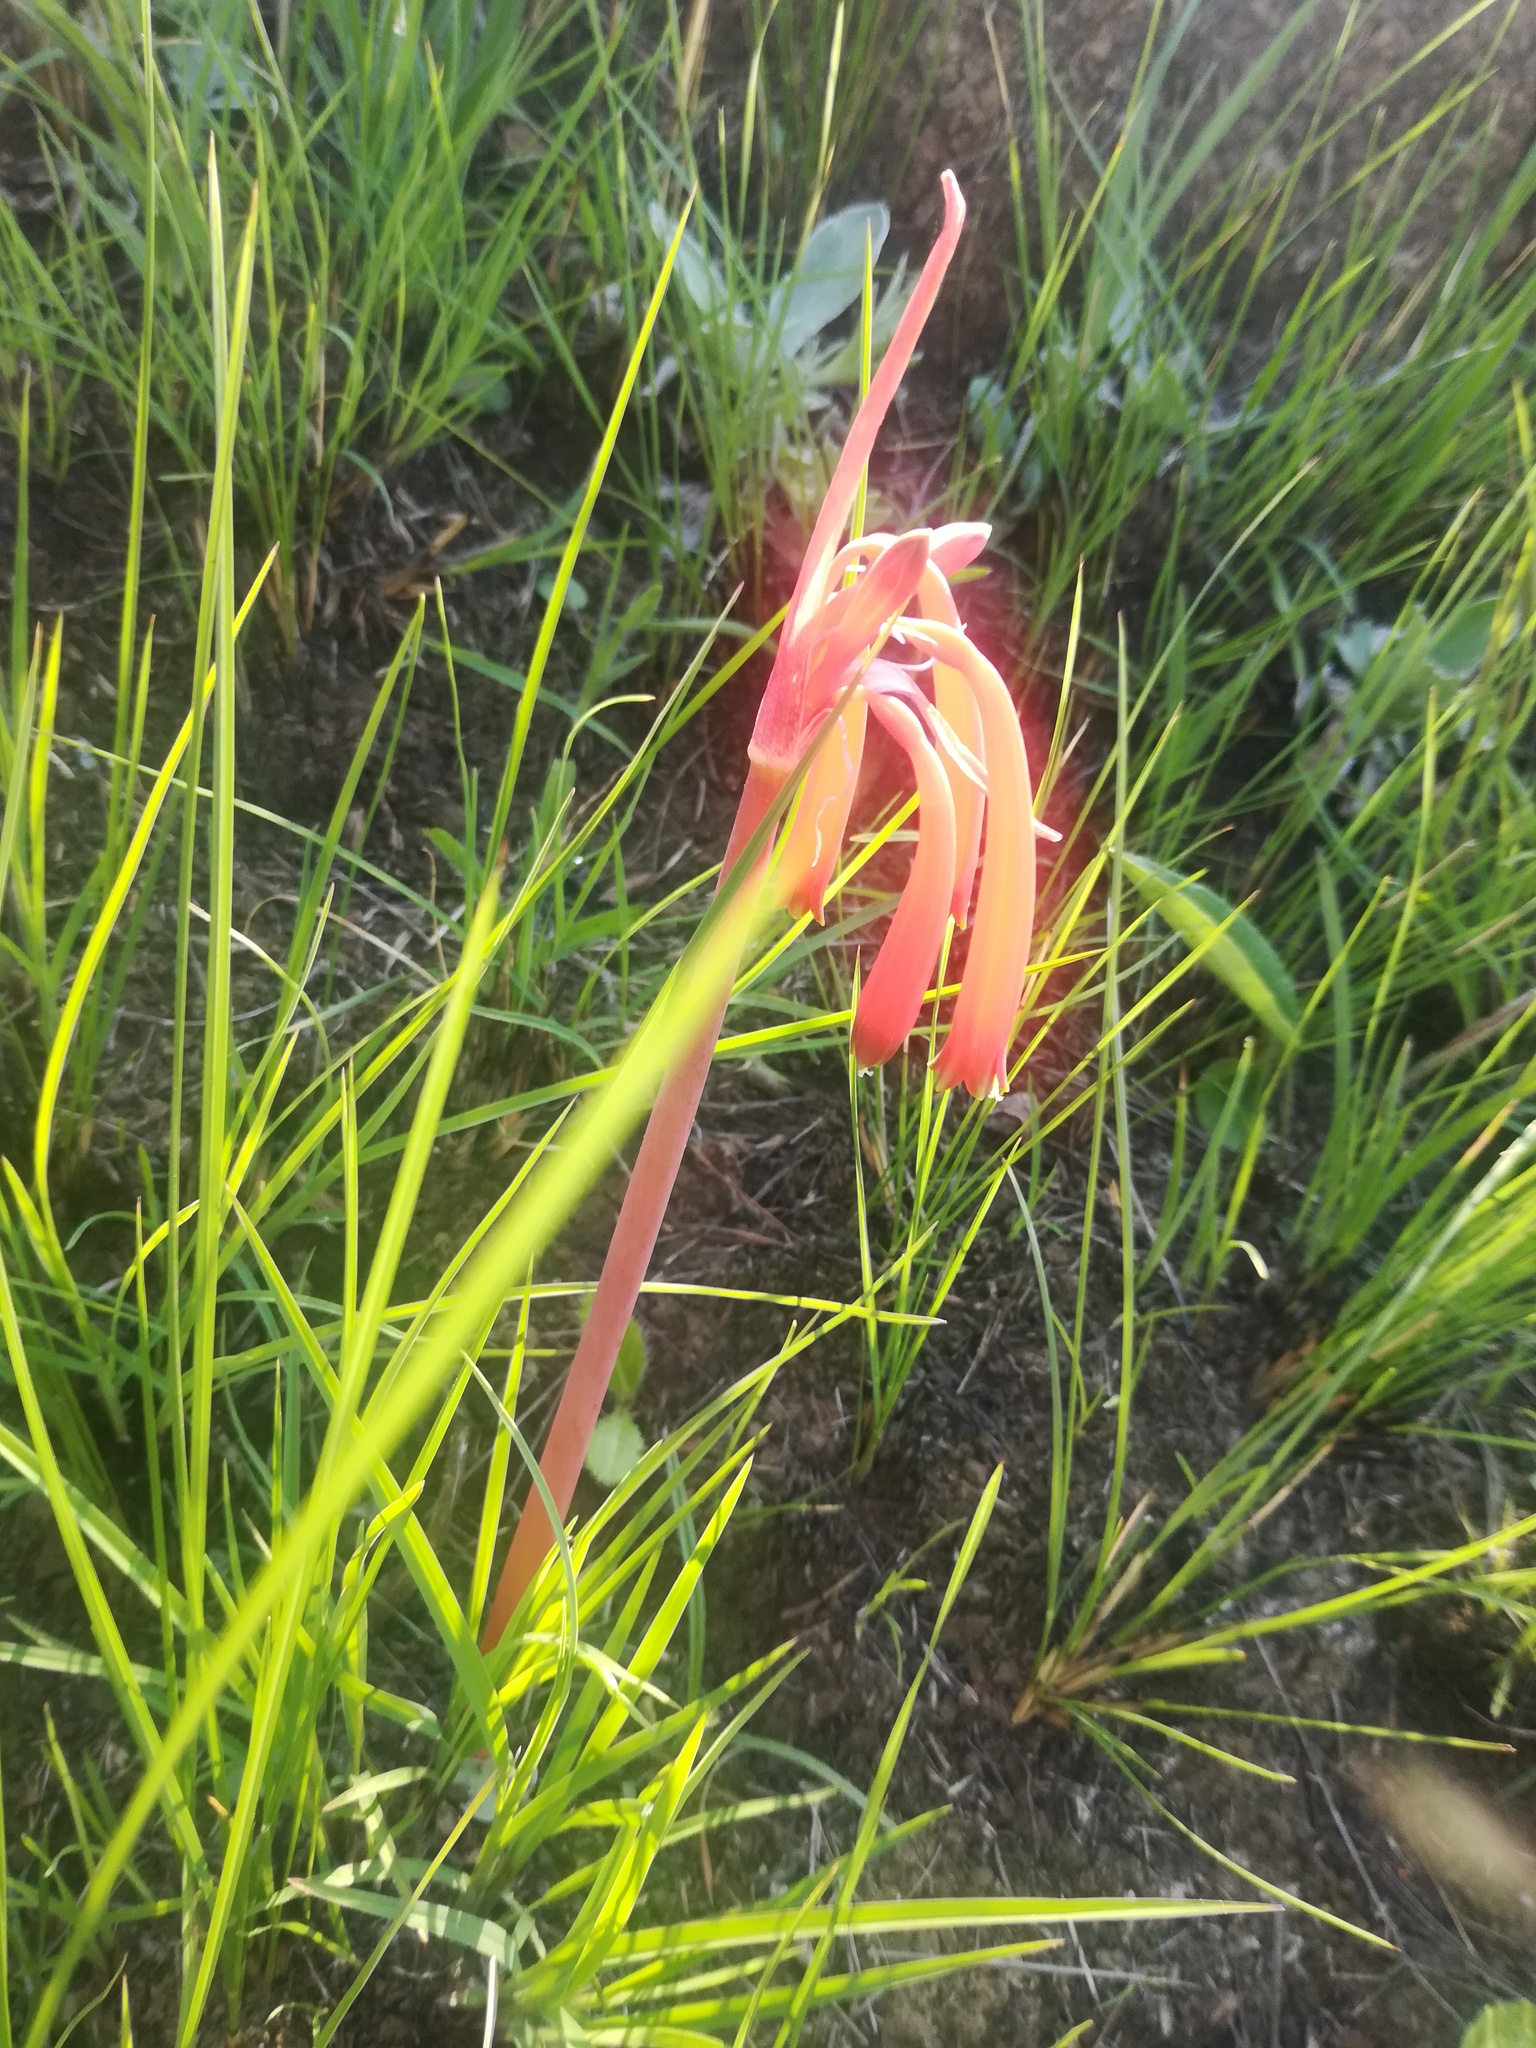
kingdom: Plantae
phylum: Tracheophyta
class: Liliopsida
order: Asparagales
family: Amaryllidaceae
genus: Cyrtanthus
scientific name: Cyrtanthus tuckii
